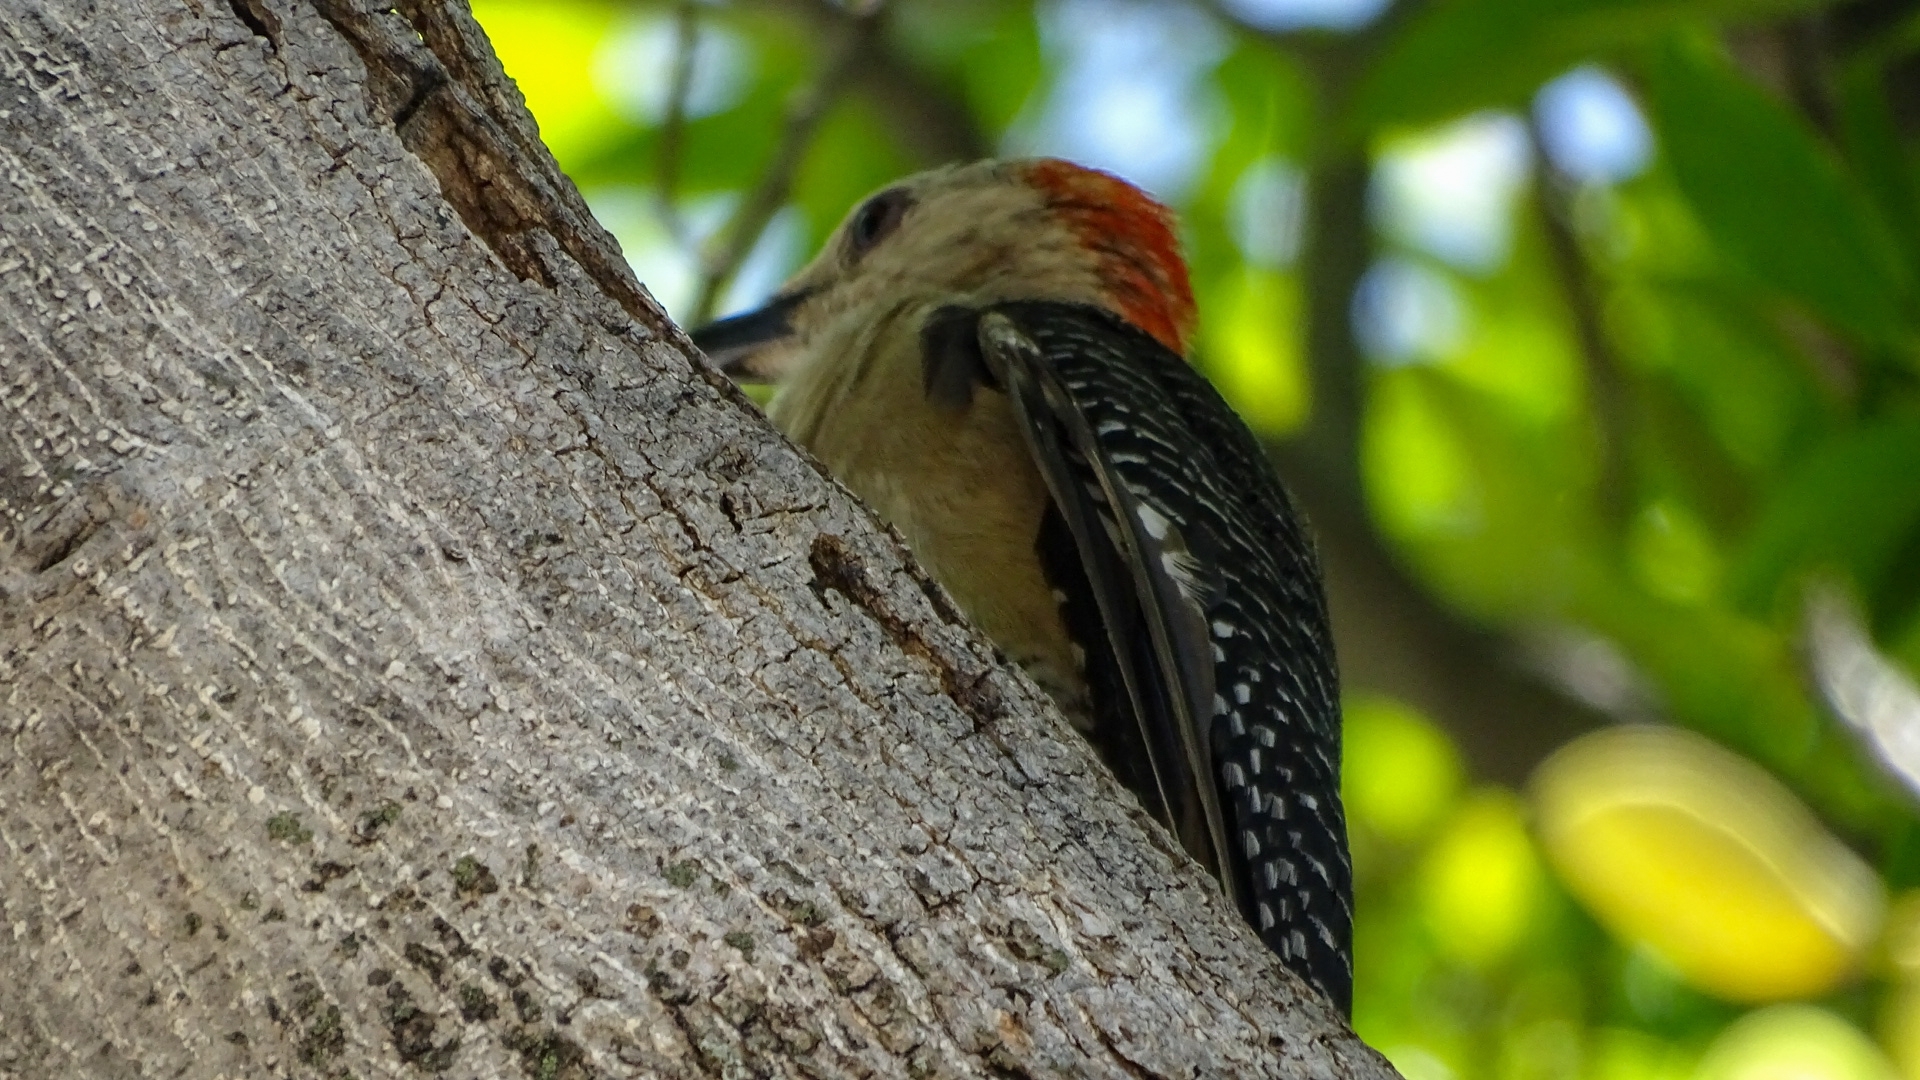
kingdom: Animalia
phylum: Chordata
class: Aves
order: Piciformes
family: Picidae
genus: Melanerpes
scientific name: Melanerpes santacruzi
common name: Velasquez's woodpecker
